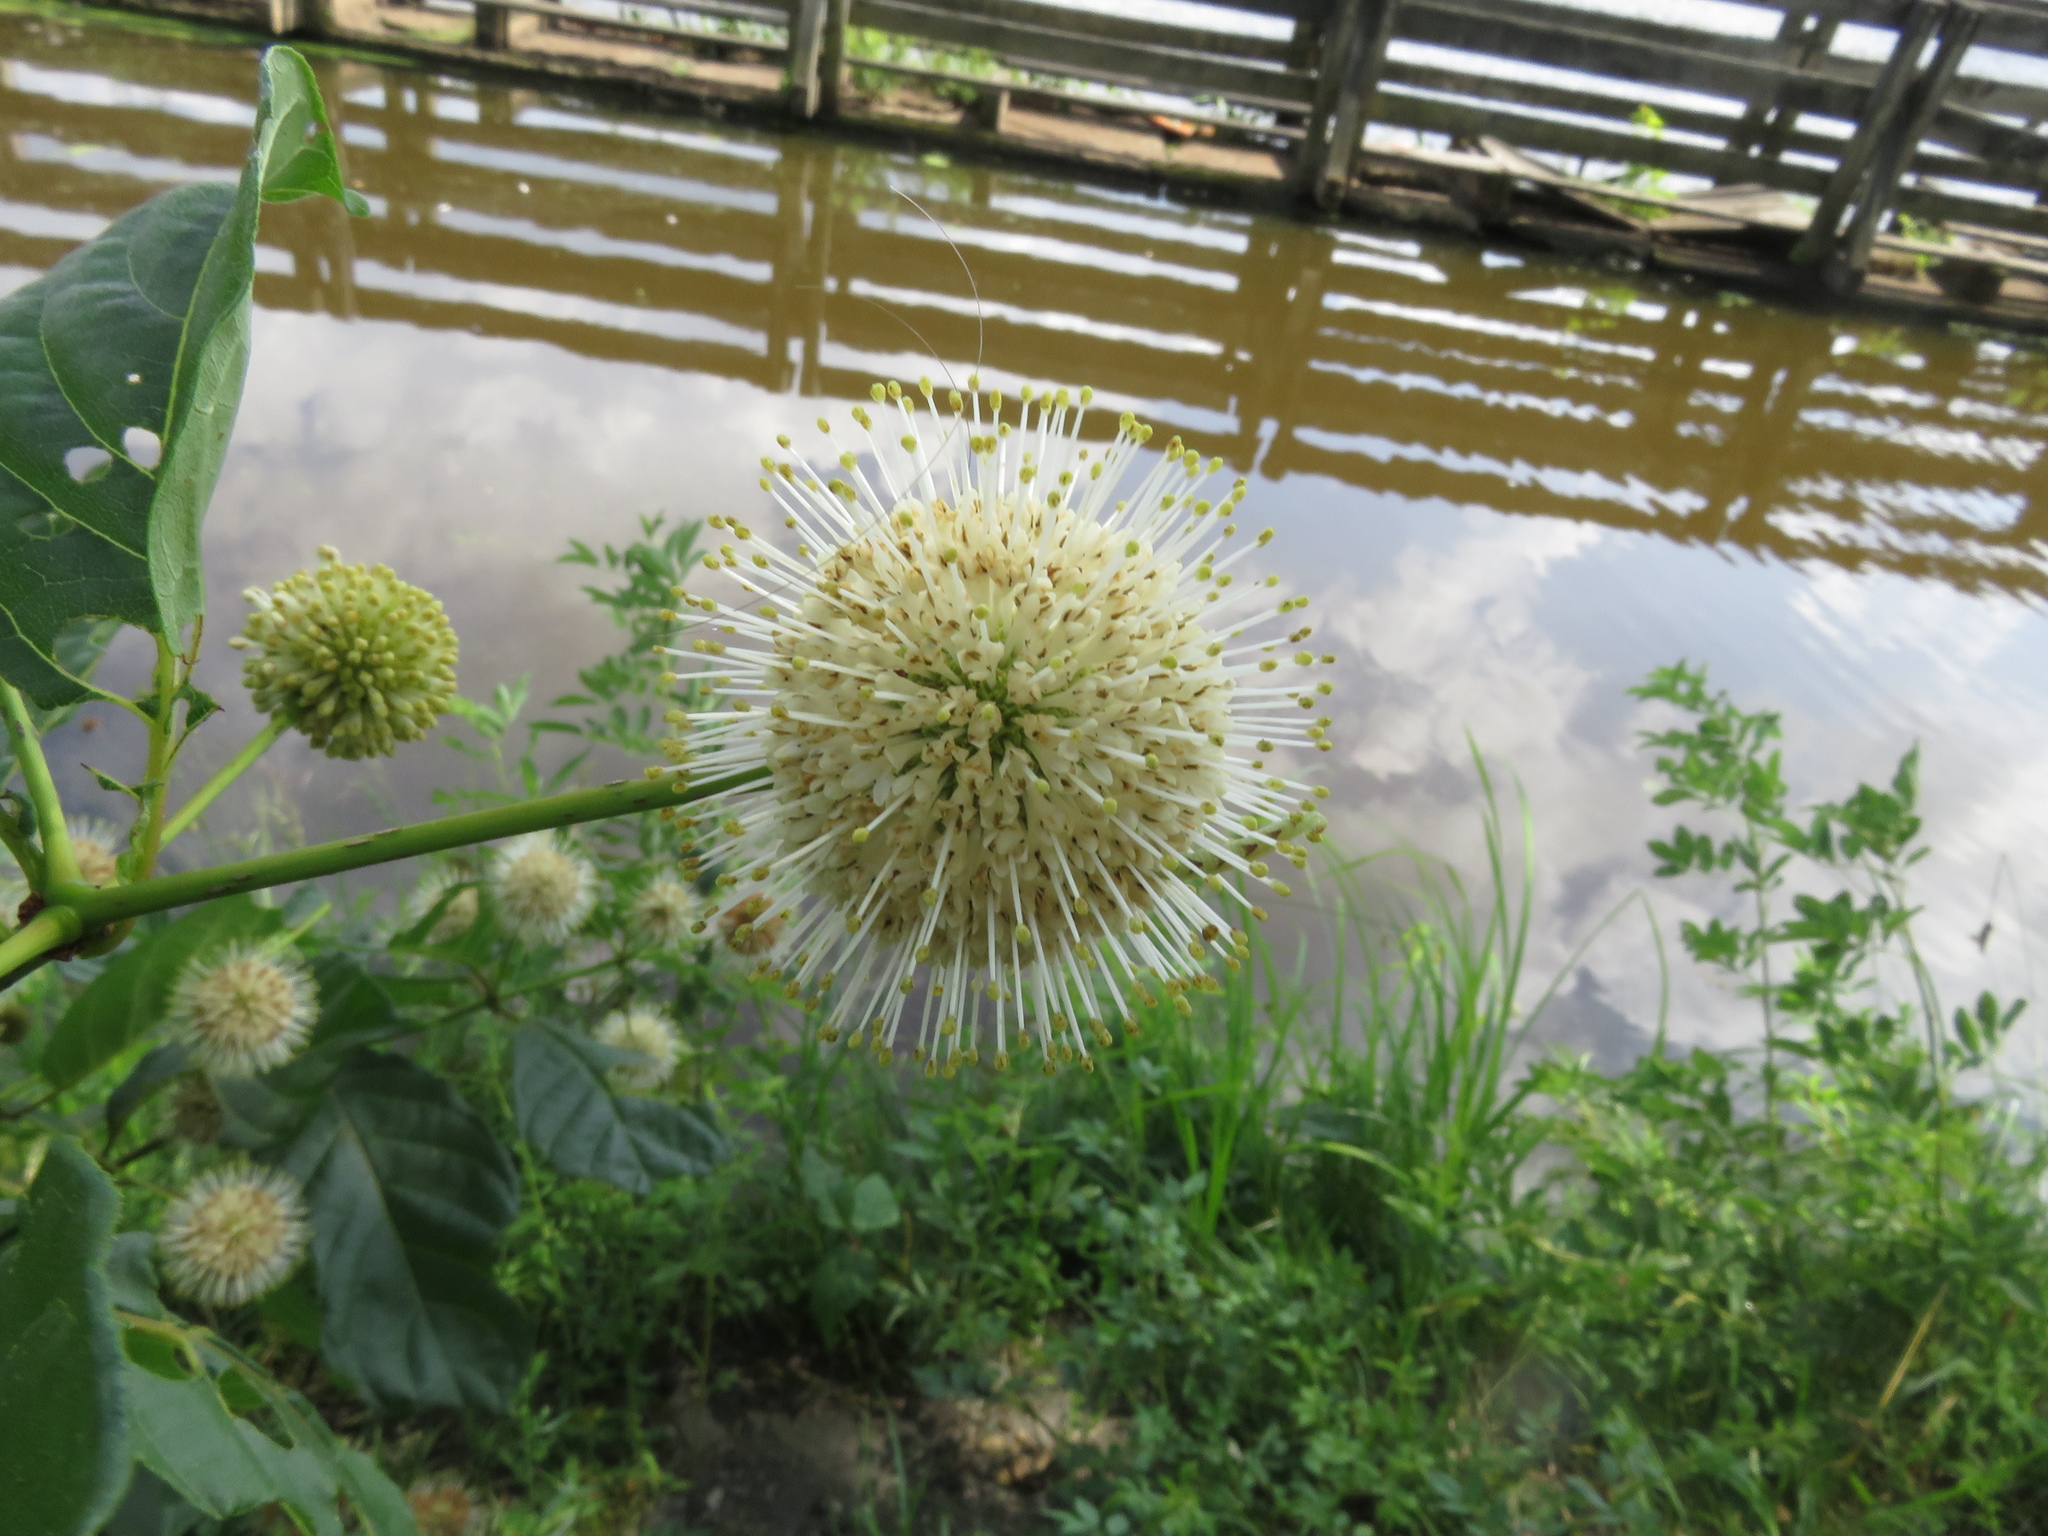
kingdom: Plantae
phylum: Tracheophyta
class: Magnoliopsida
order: Gentianales
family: Rubiaceae
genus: Cephalanthus
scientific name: Cephalanthus occidentalis
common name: Button-willow
